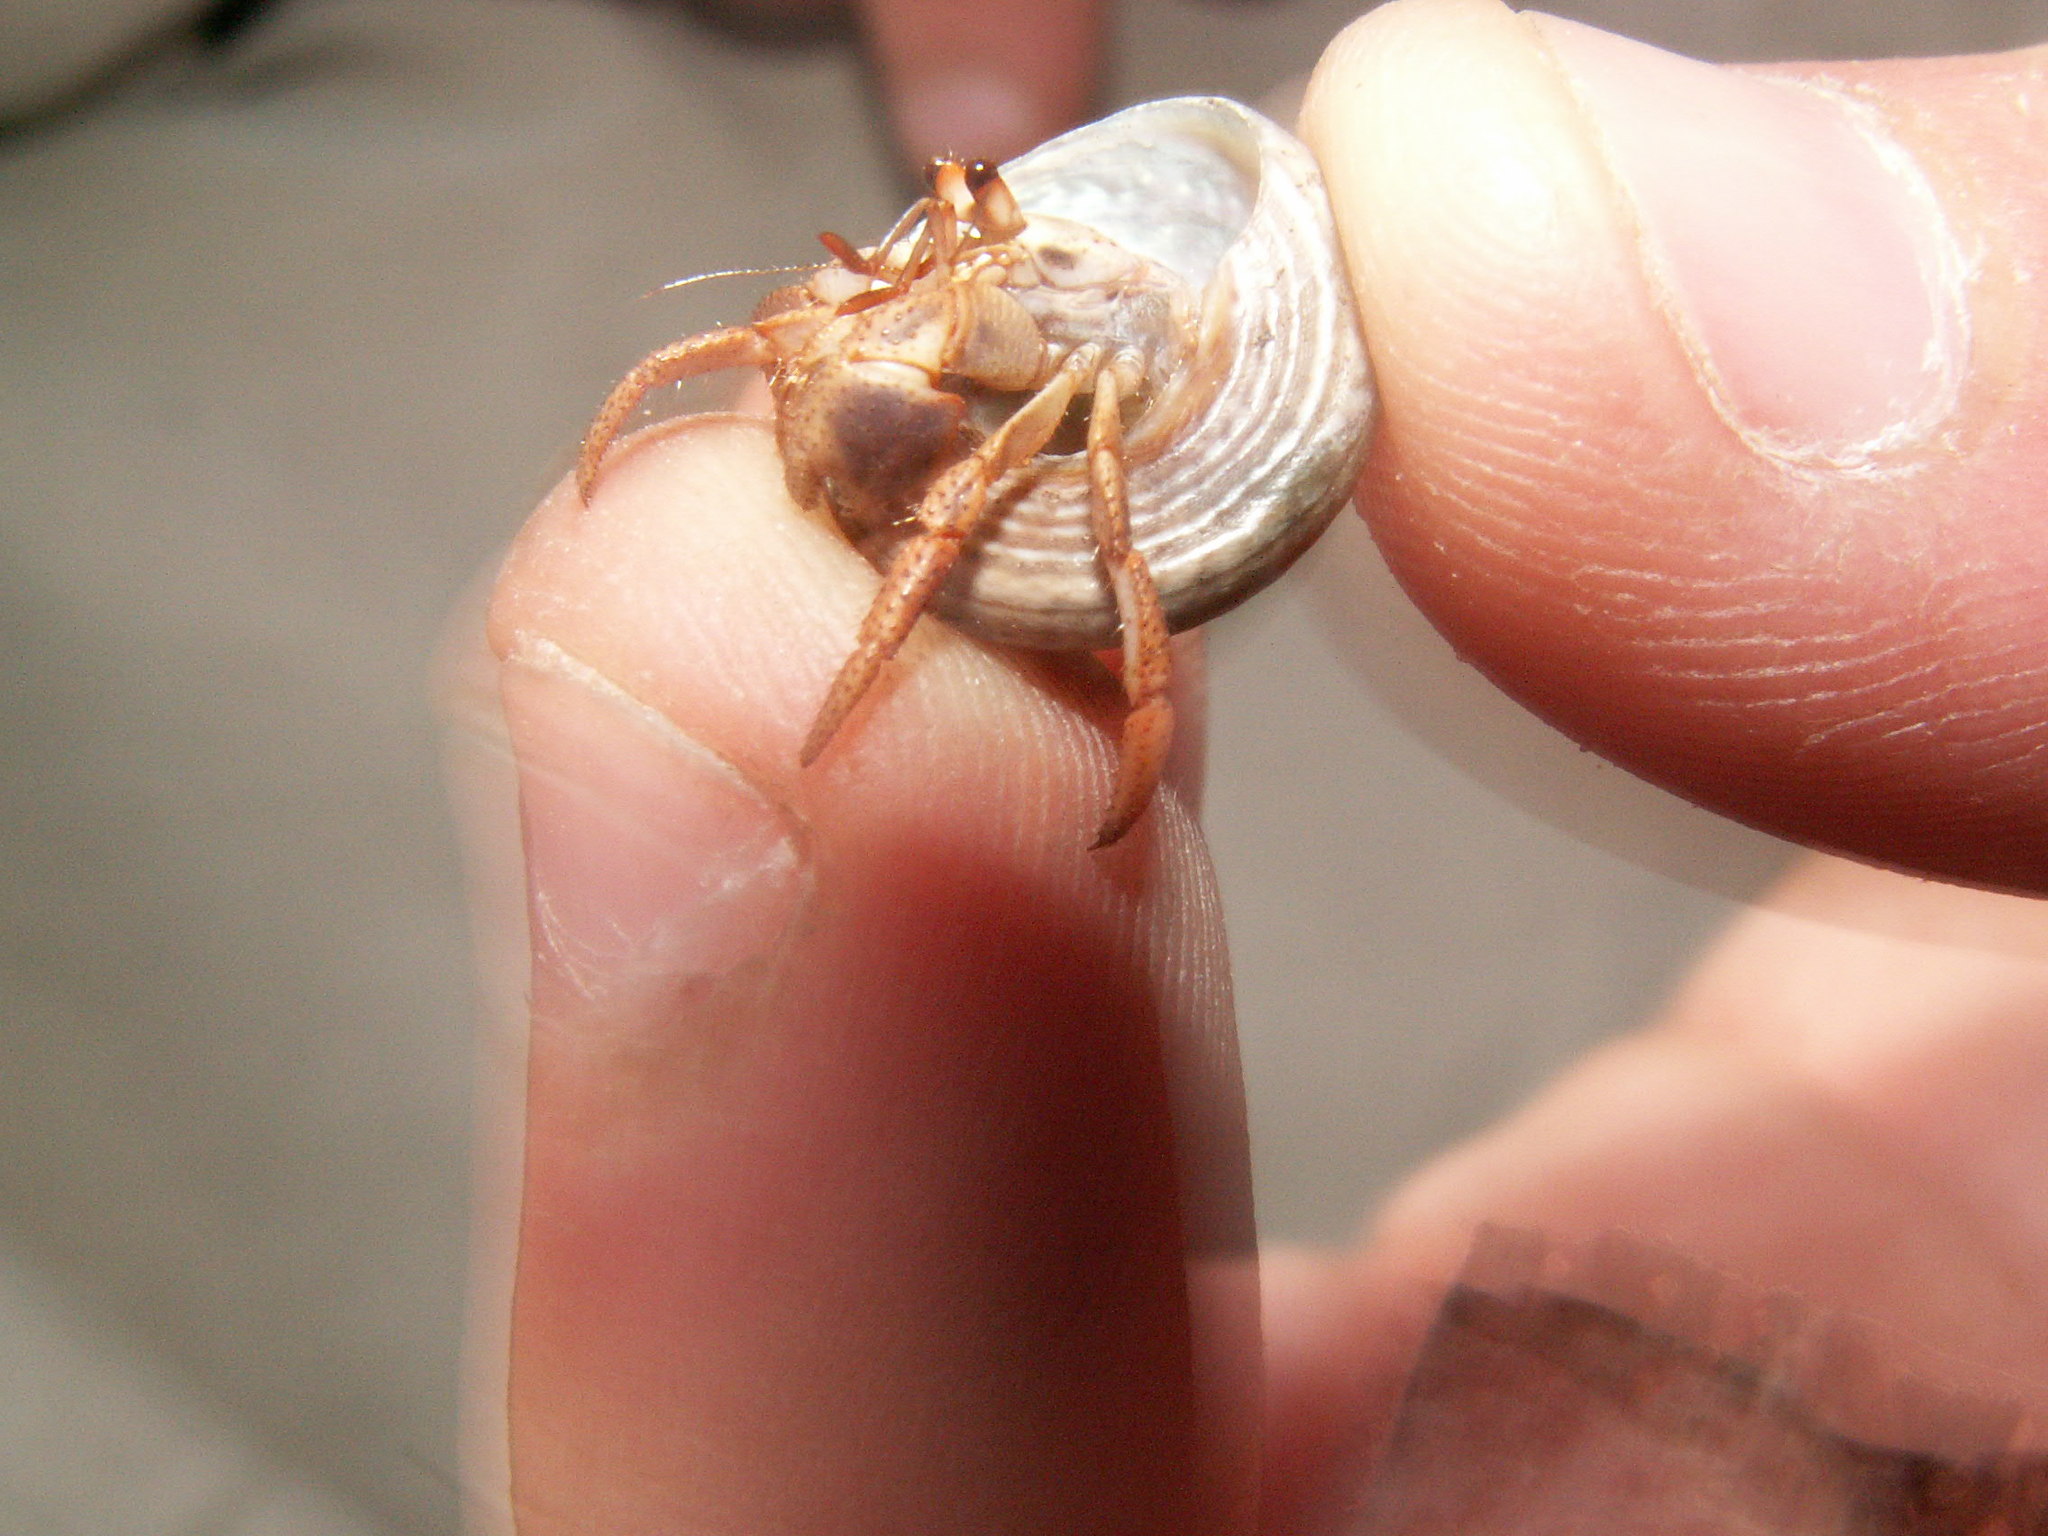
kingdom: Animalia
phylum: Arthropoda
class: Malacostraca
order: Decapoda
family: Coenobitidae
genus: Coenobita
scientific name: Coenobita clypeatus
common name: Caribbean hermit crab
